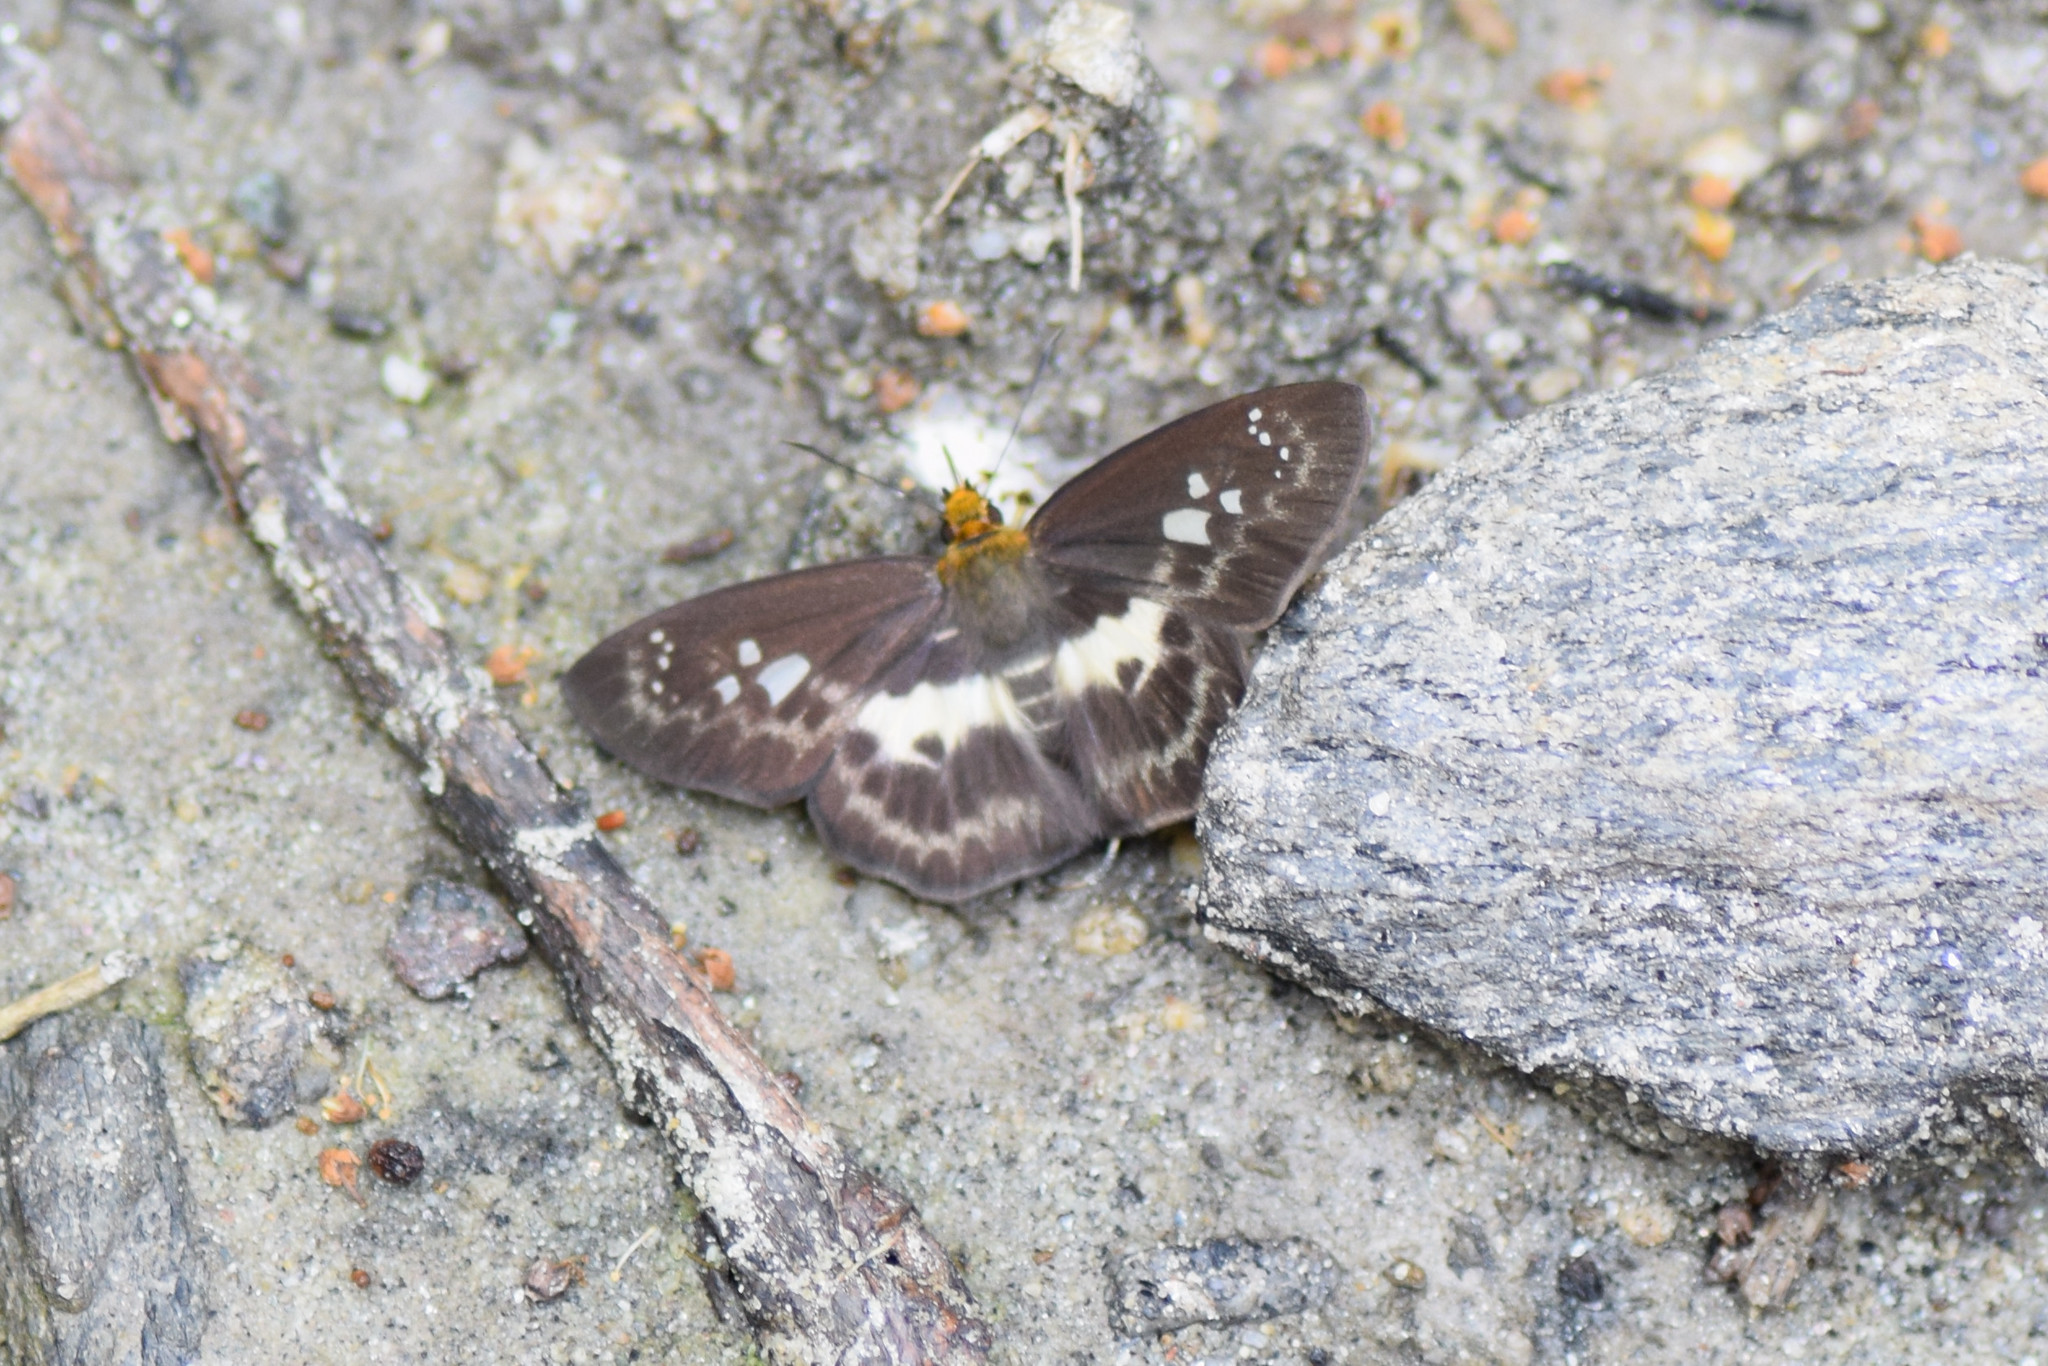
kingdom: Animalia
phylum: Arthropoda
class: Insecta
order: Lepidoptera
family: Hesperiidae
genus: Daimio
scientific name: Daimio Gerosis phisara
